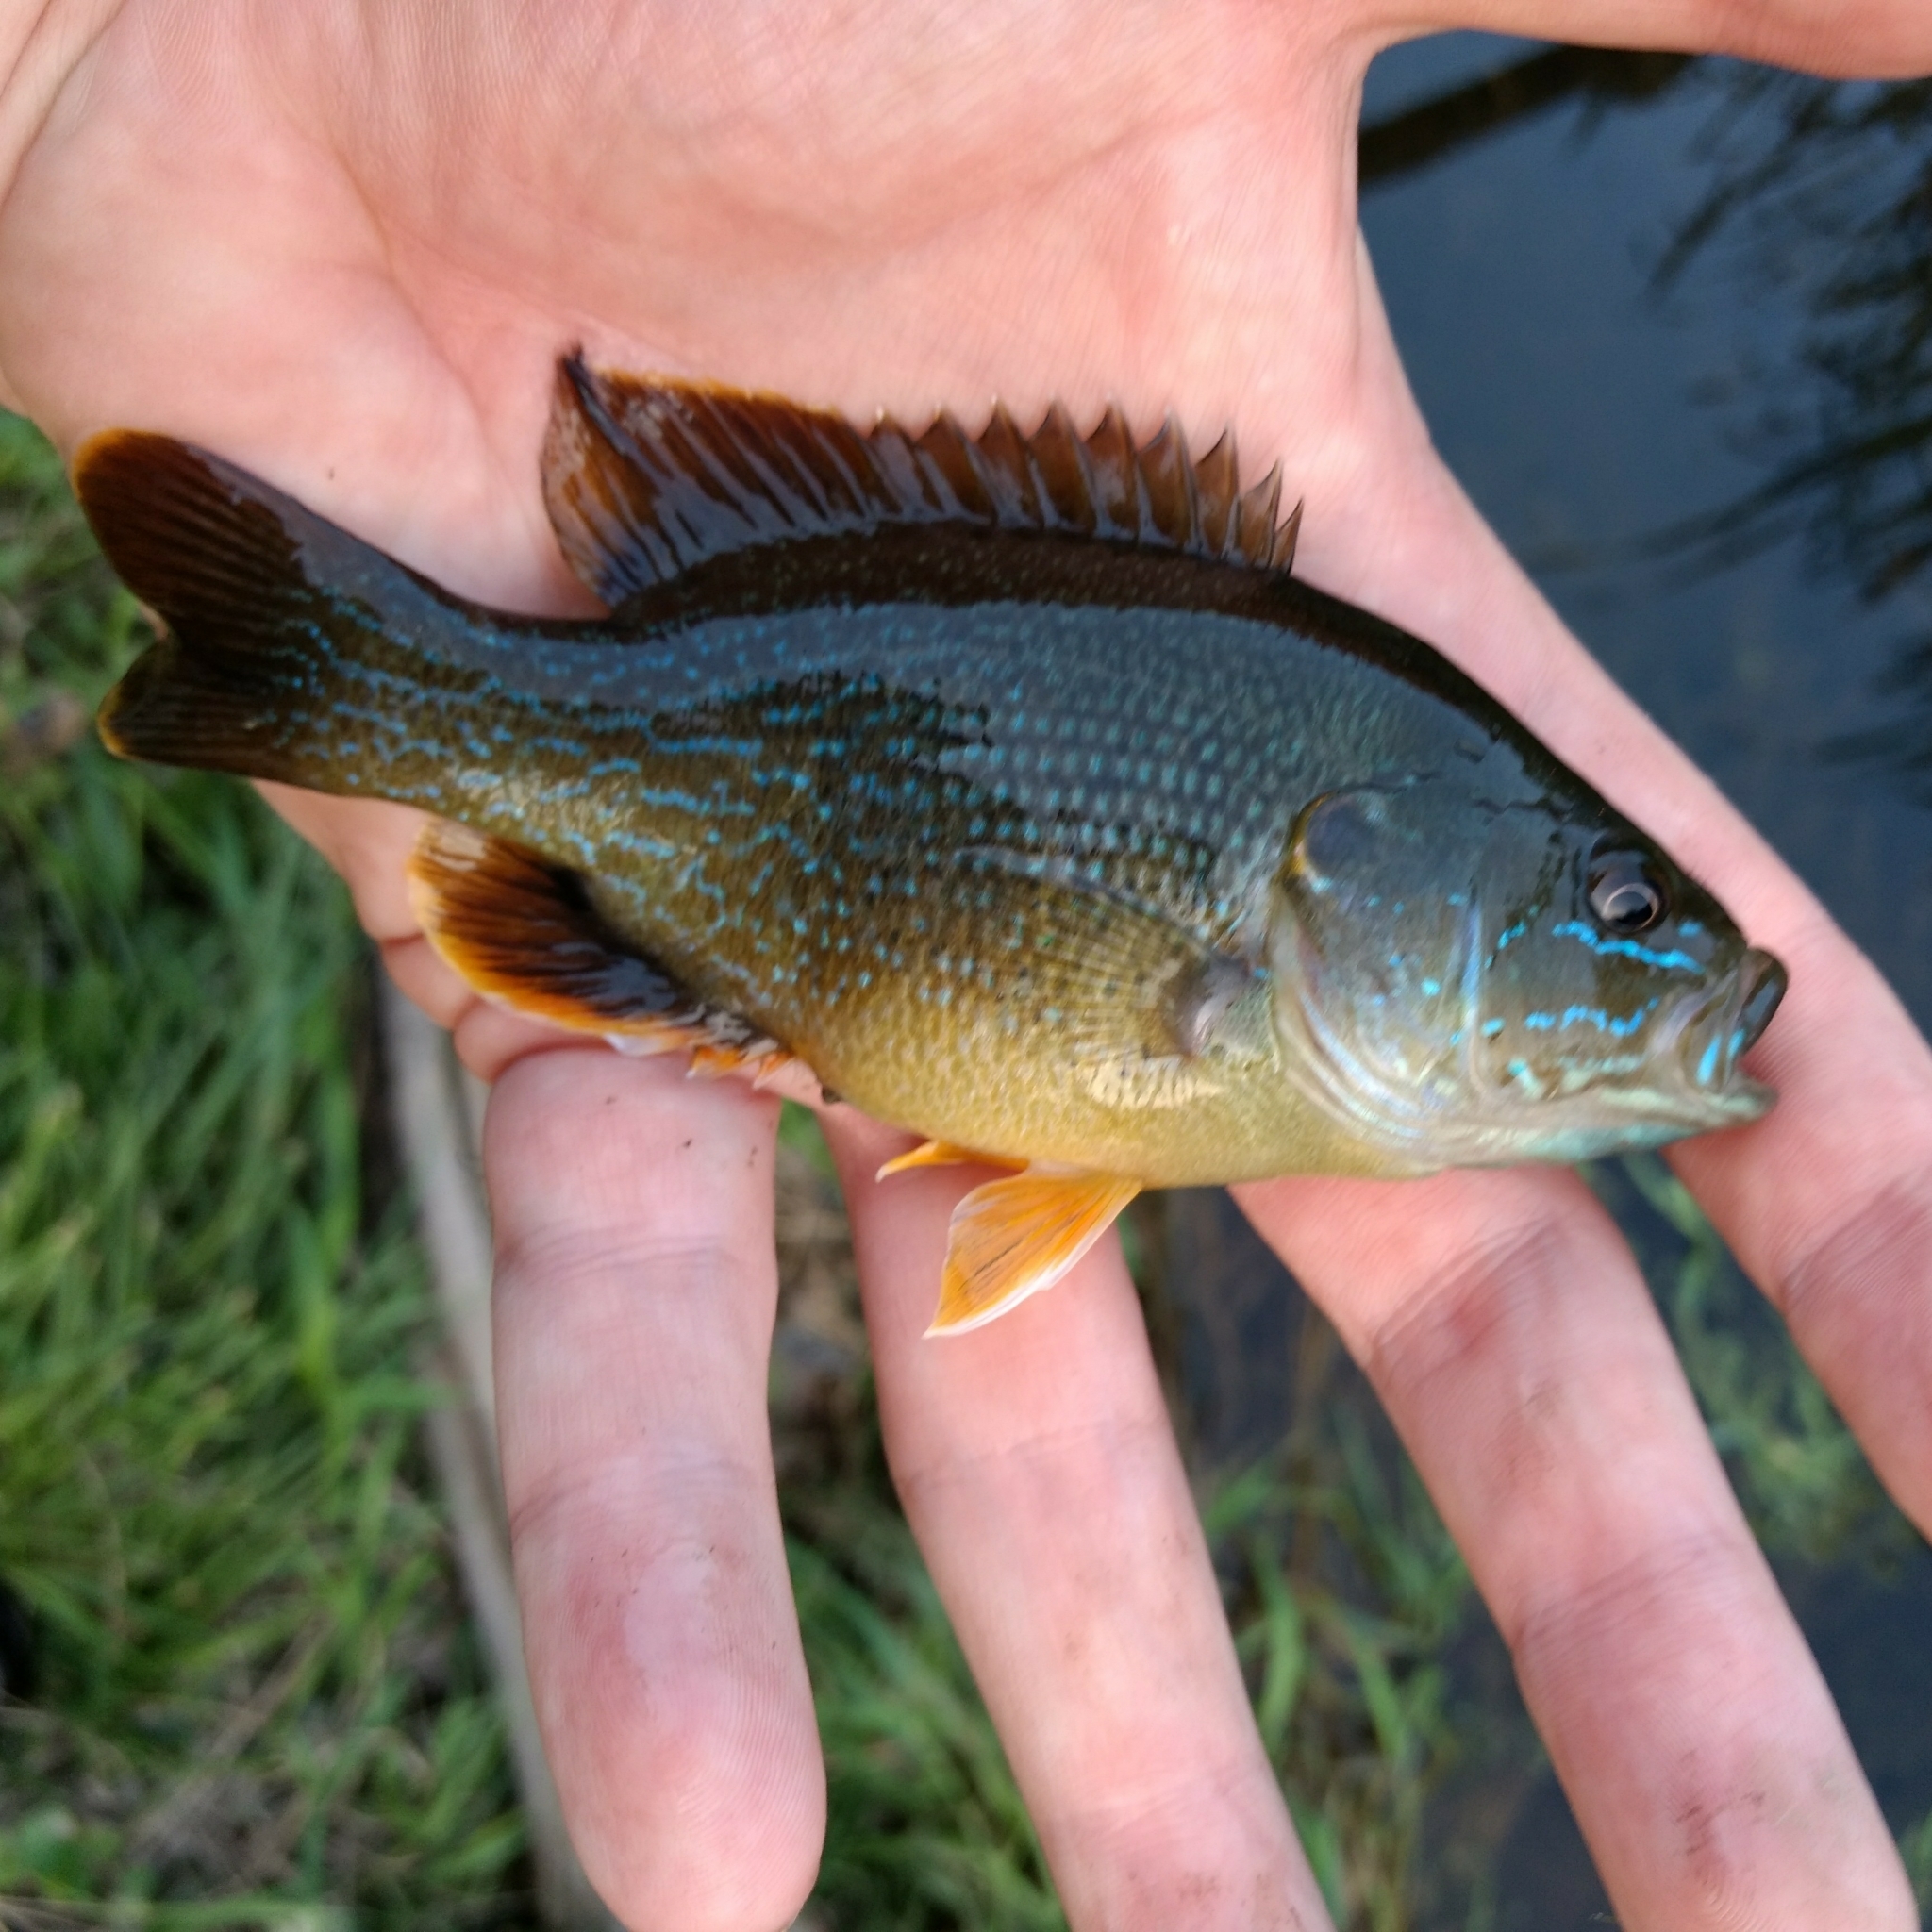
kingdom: Animalia
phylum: Chordata
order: Perciformes
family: Centrarchidae
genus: Lepomis
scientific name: Lepomis cyanellus
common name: Green sunfish
